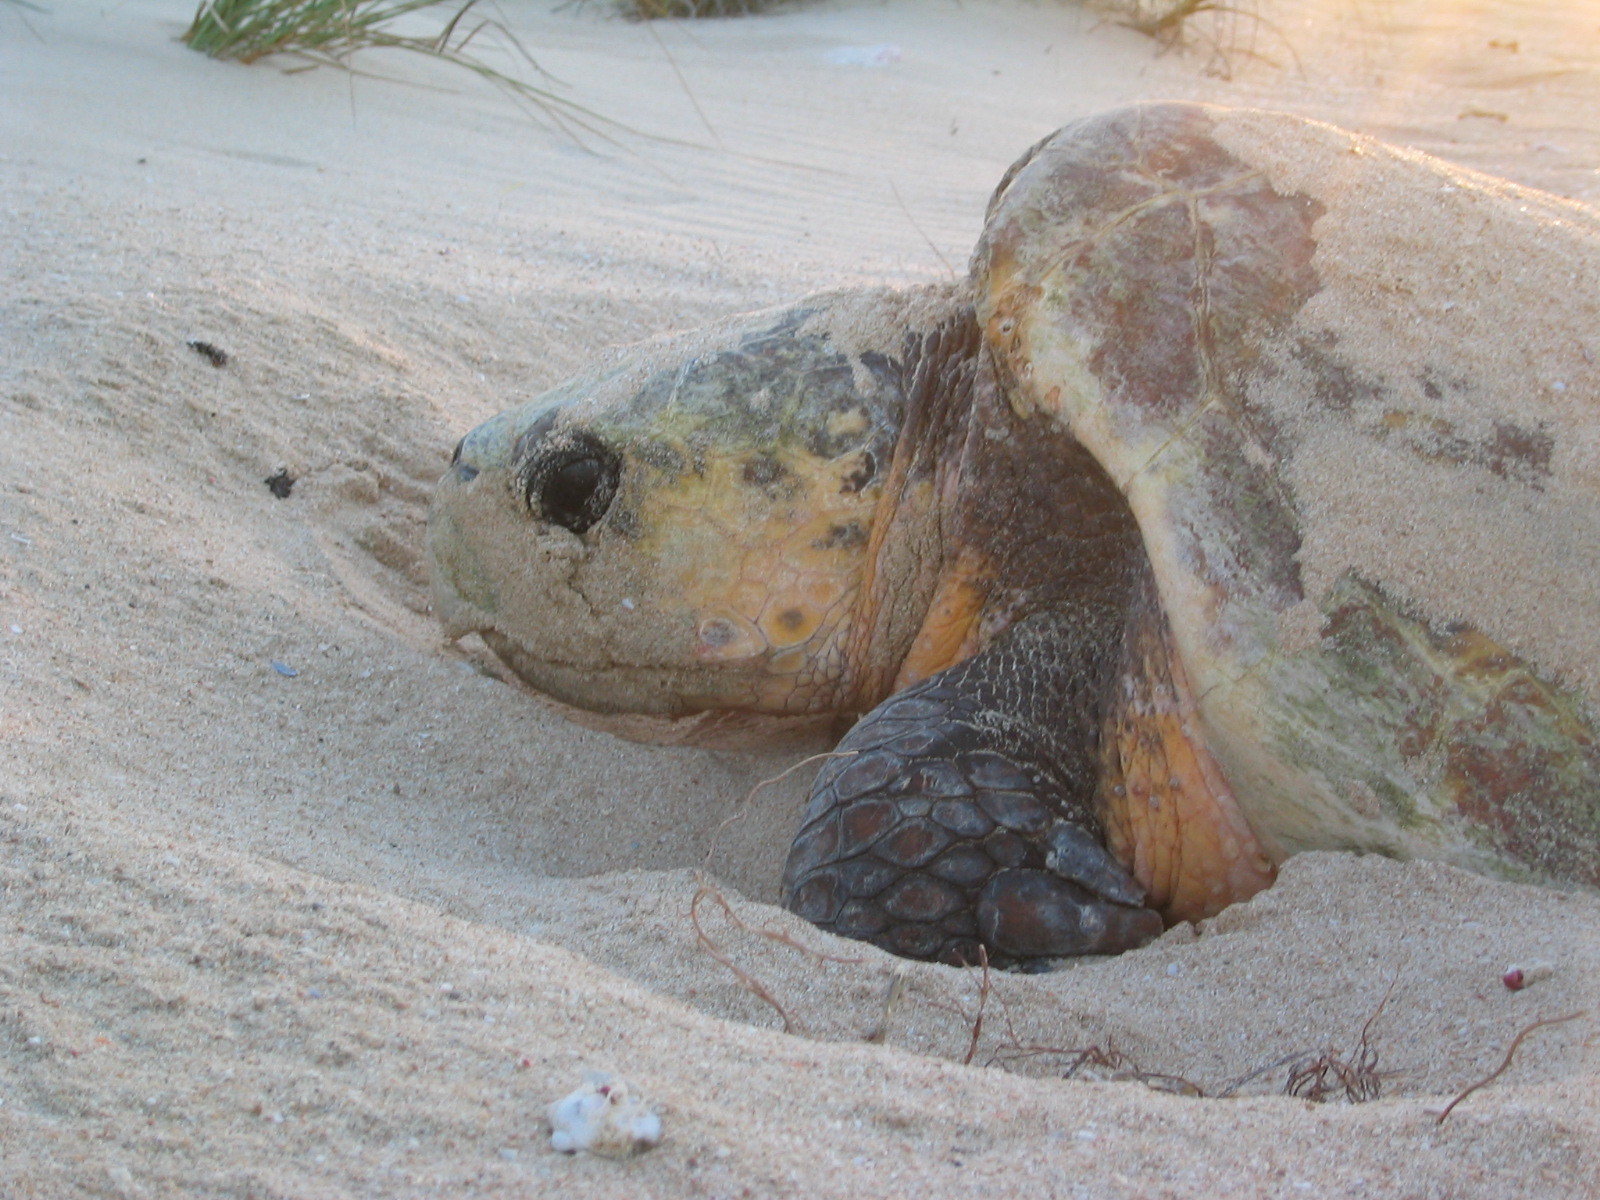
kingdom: Animalia
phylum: Chordata
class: Testudines
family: Cheloniidae
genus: Caretta
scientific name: Caretta caretta
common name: Loggerhead sea turtle
